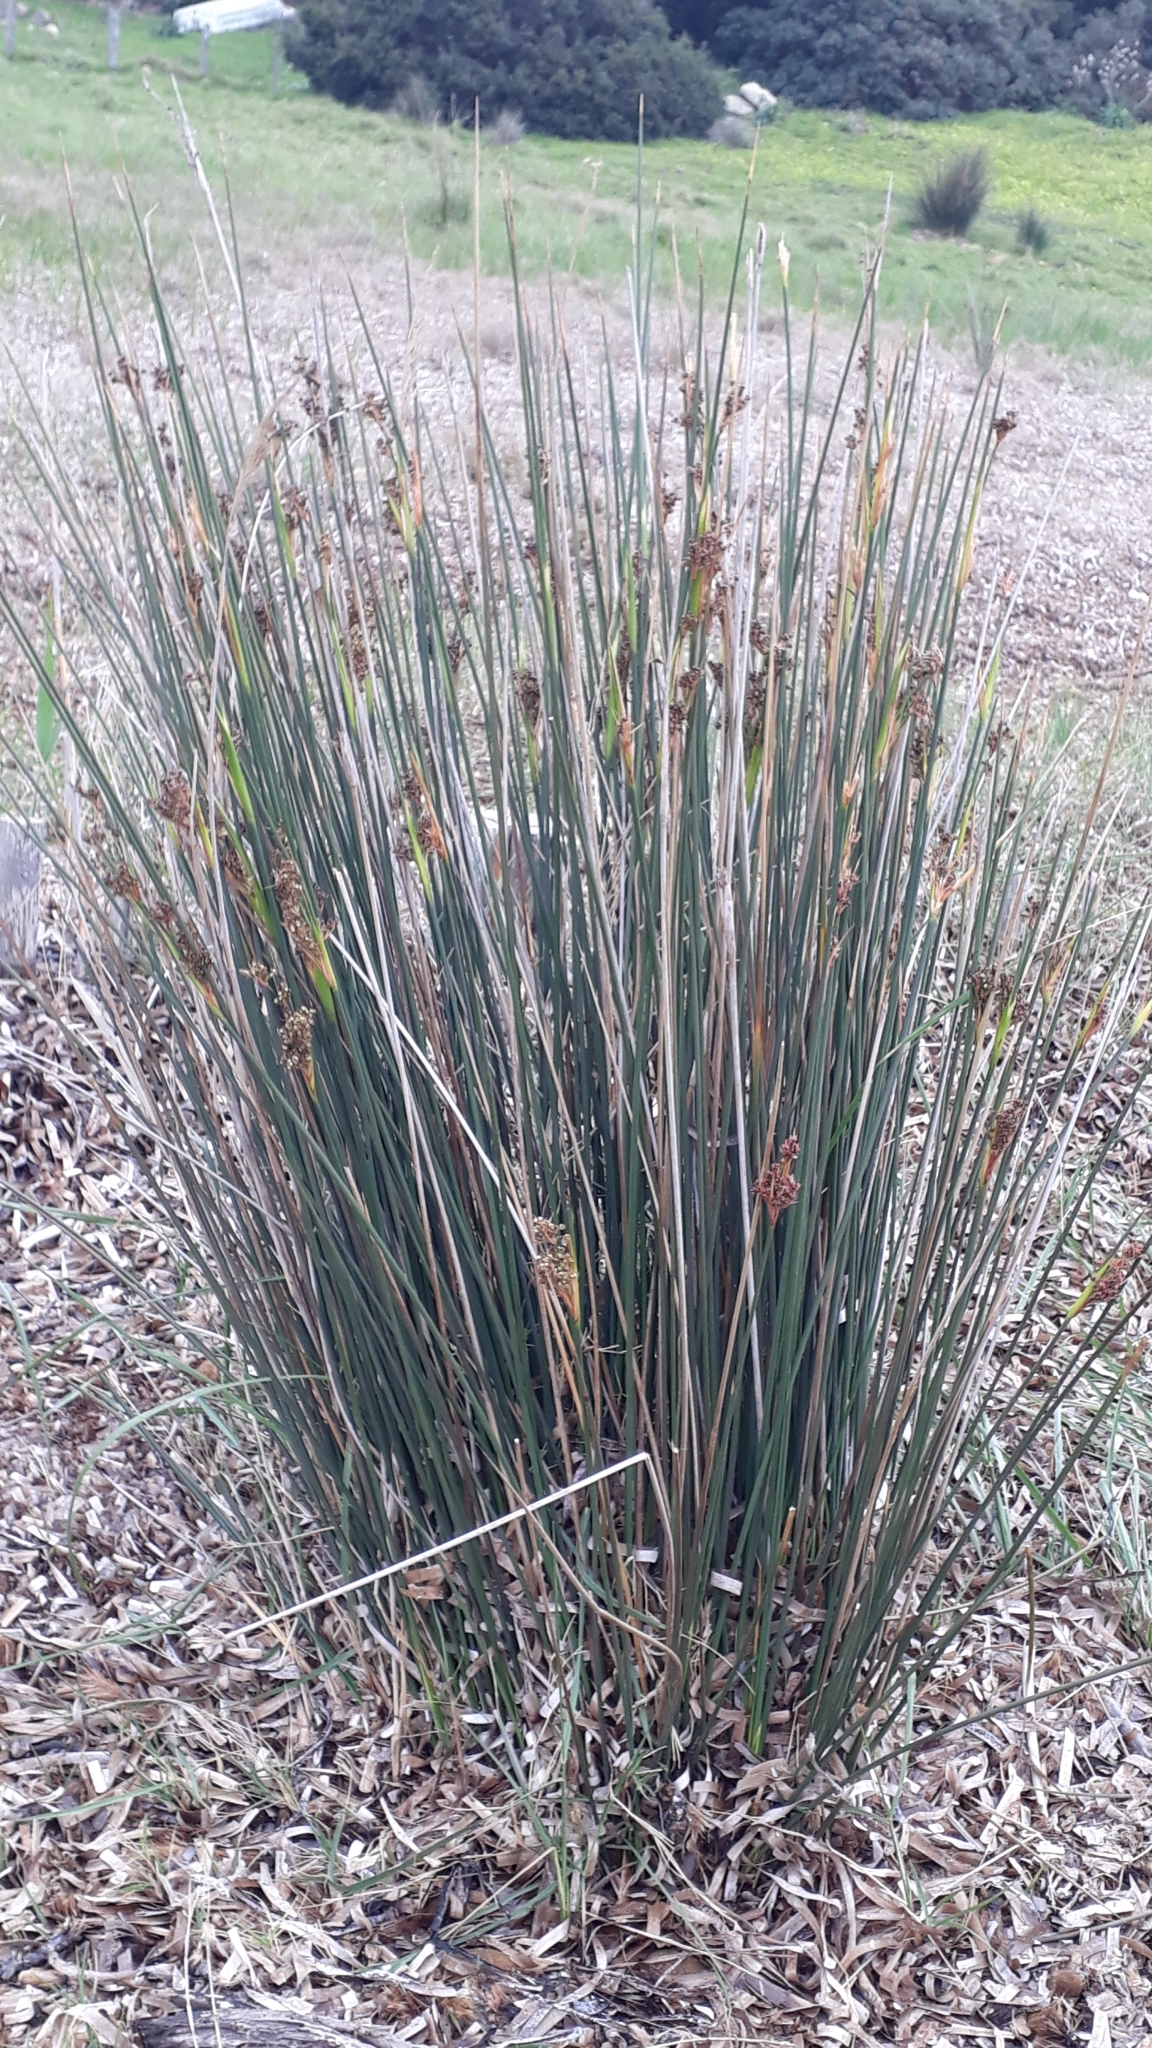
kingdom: Plantae
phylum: Tracheophyta
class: Liliopsida
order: Poales
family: Juncaceae
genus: Juncus
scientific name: Juncus acutus
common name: Sharp rush
